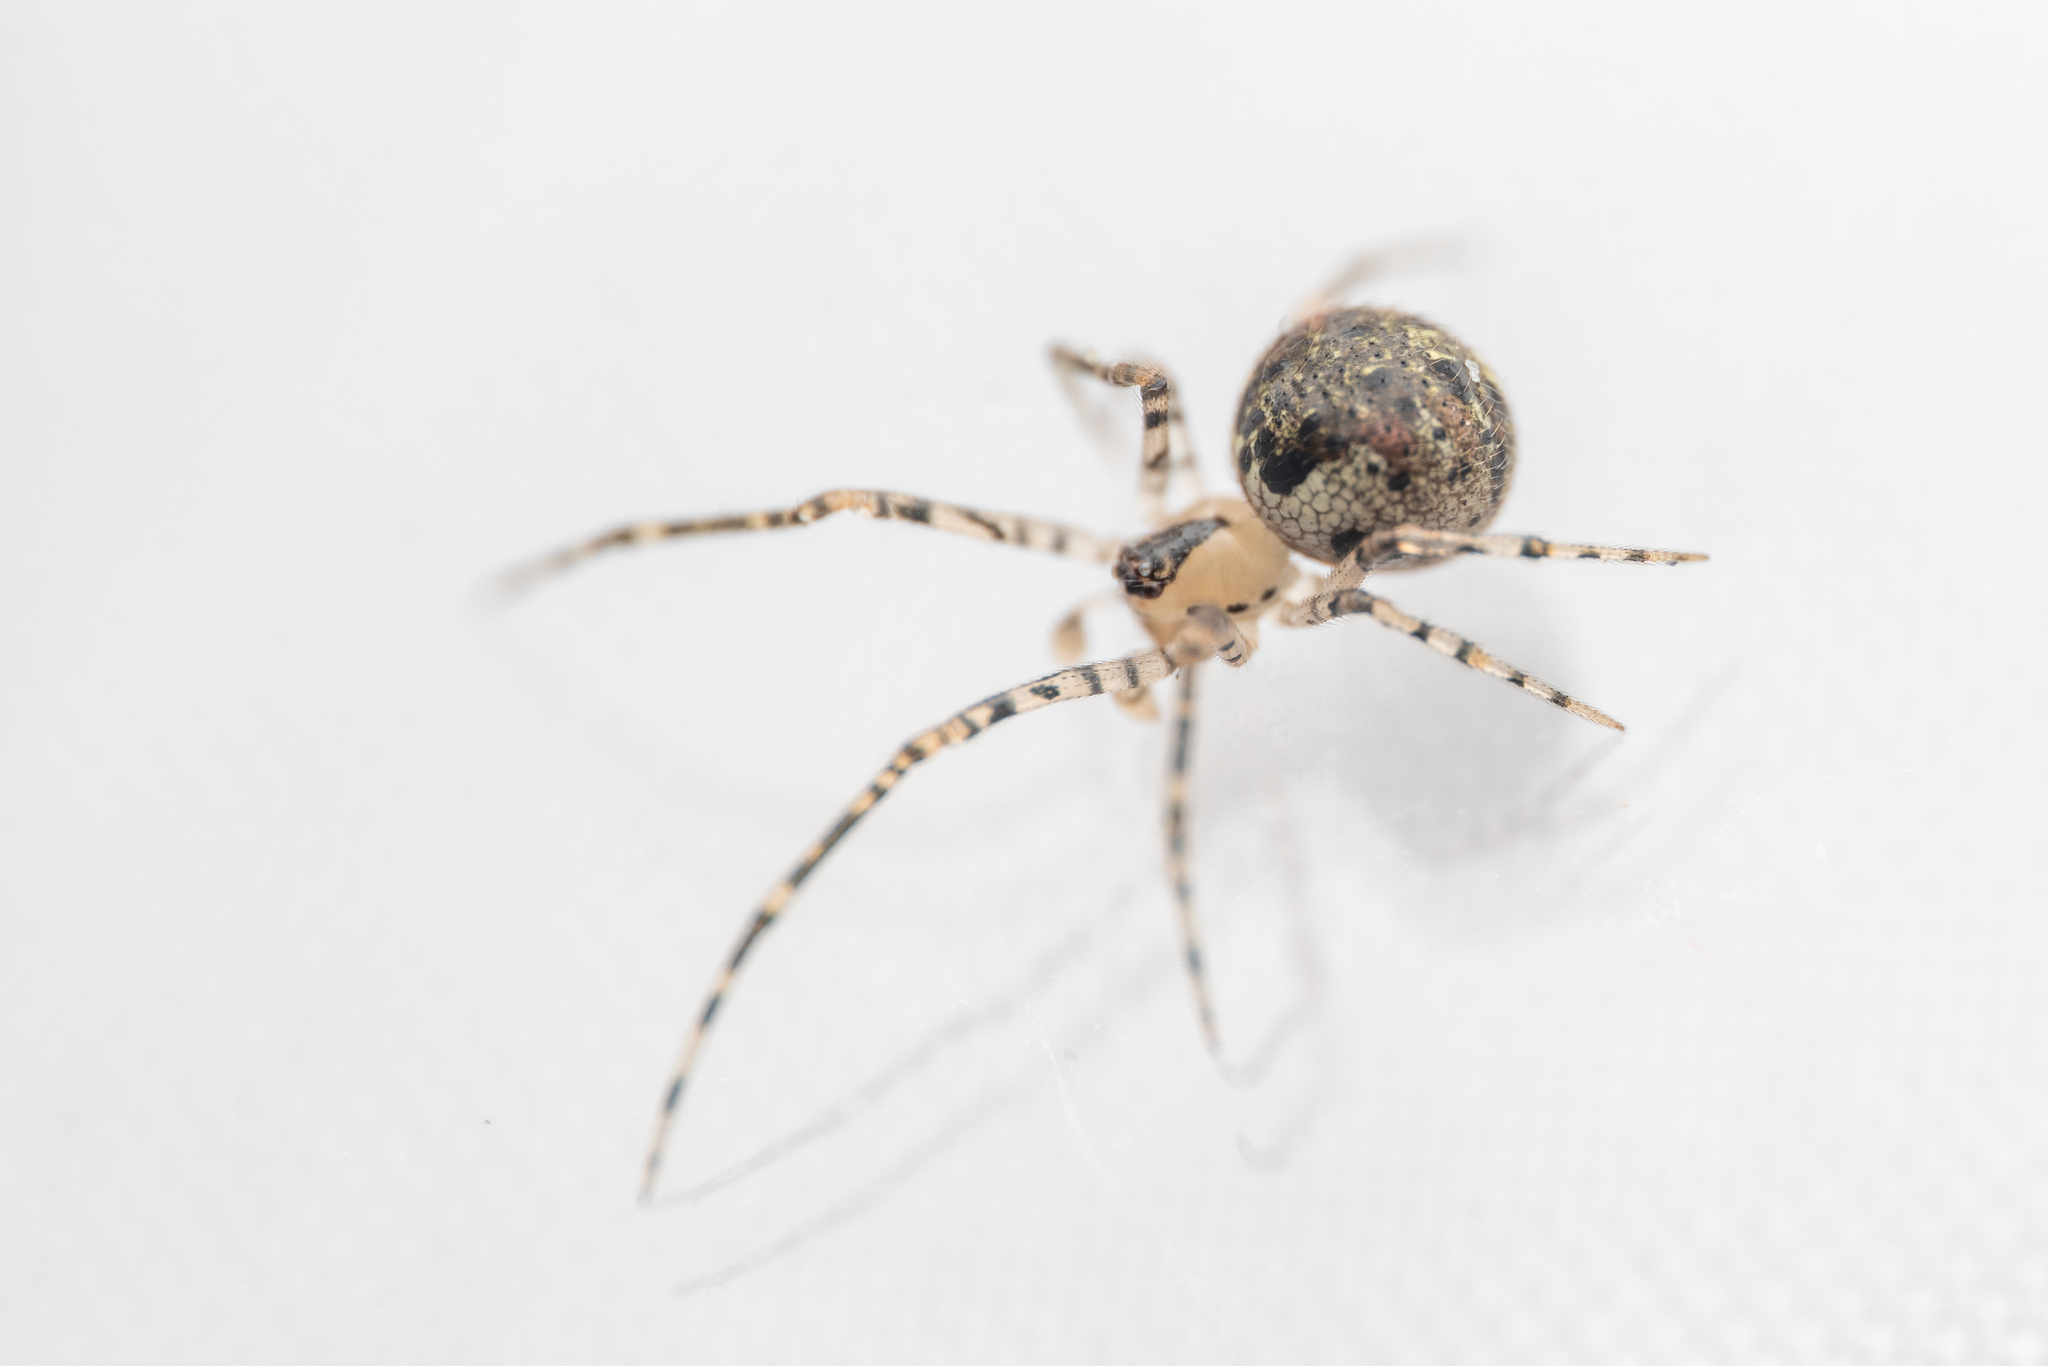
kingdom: Animalia
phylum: Arthropoda
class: Arachnida
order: Araneae
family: Theridiidae
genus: Platnickina
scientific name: Platnickina tincta
